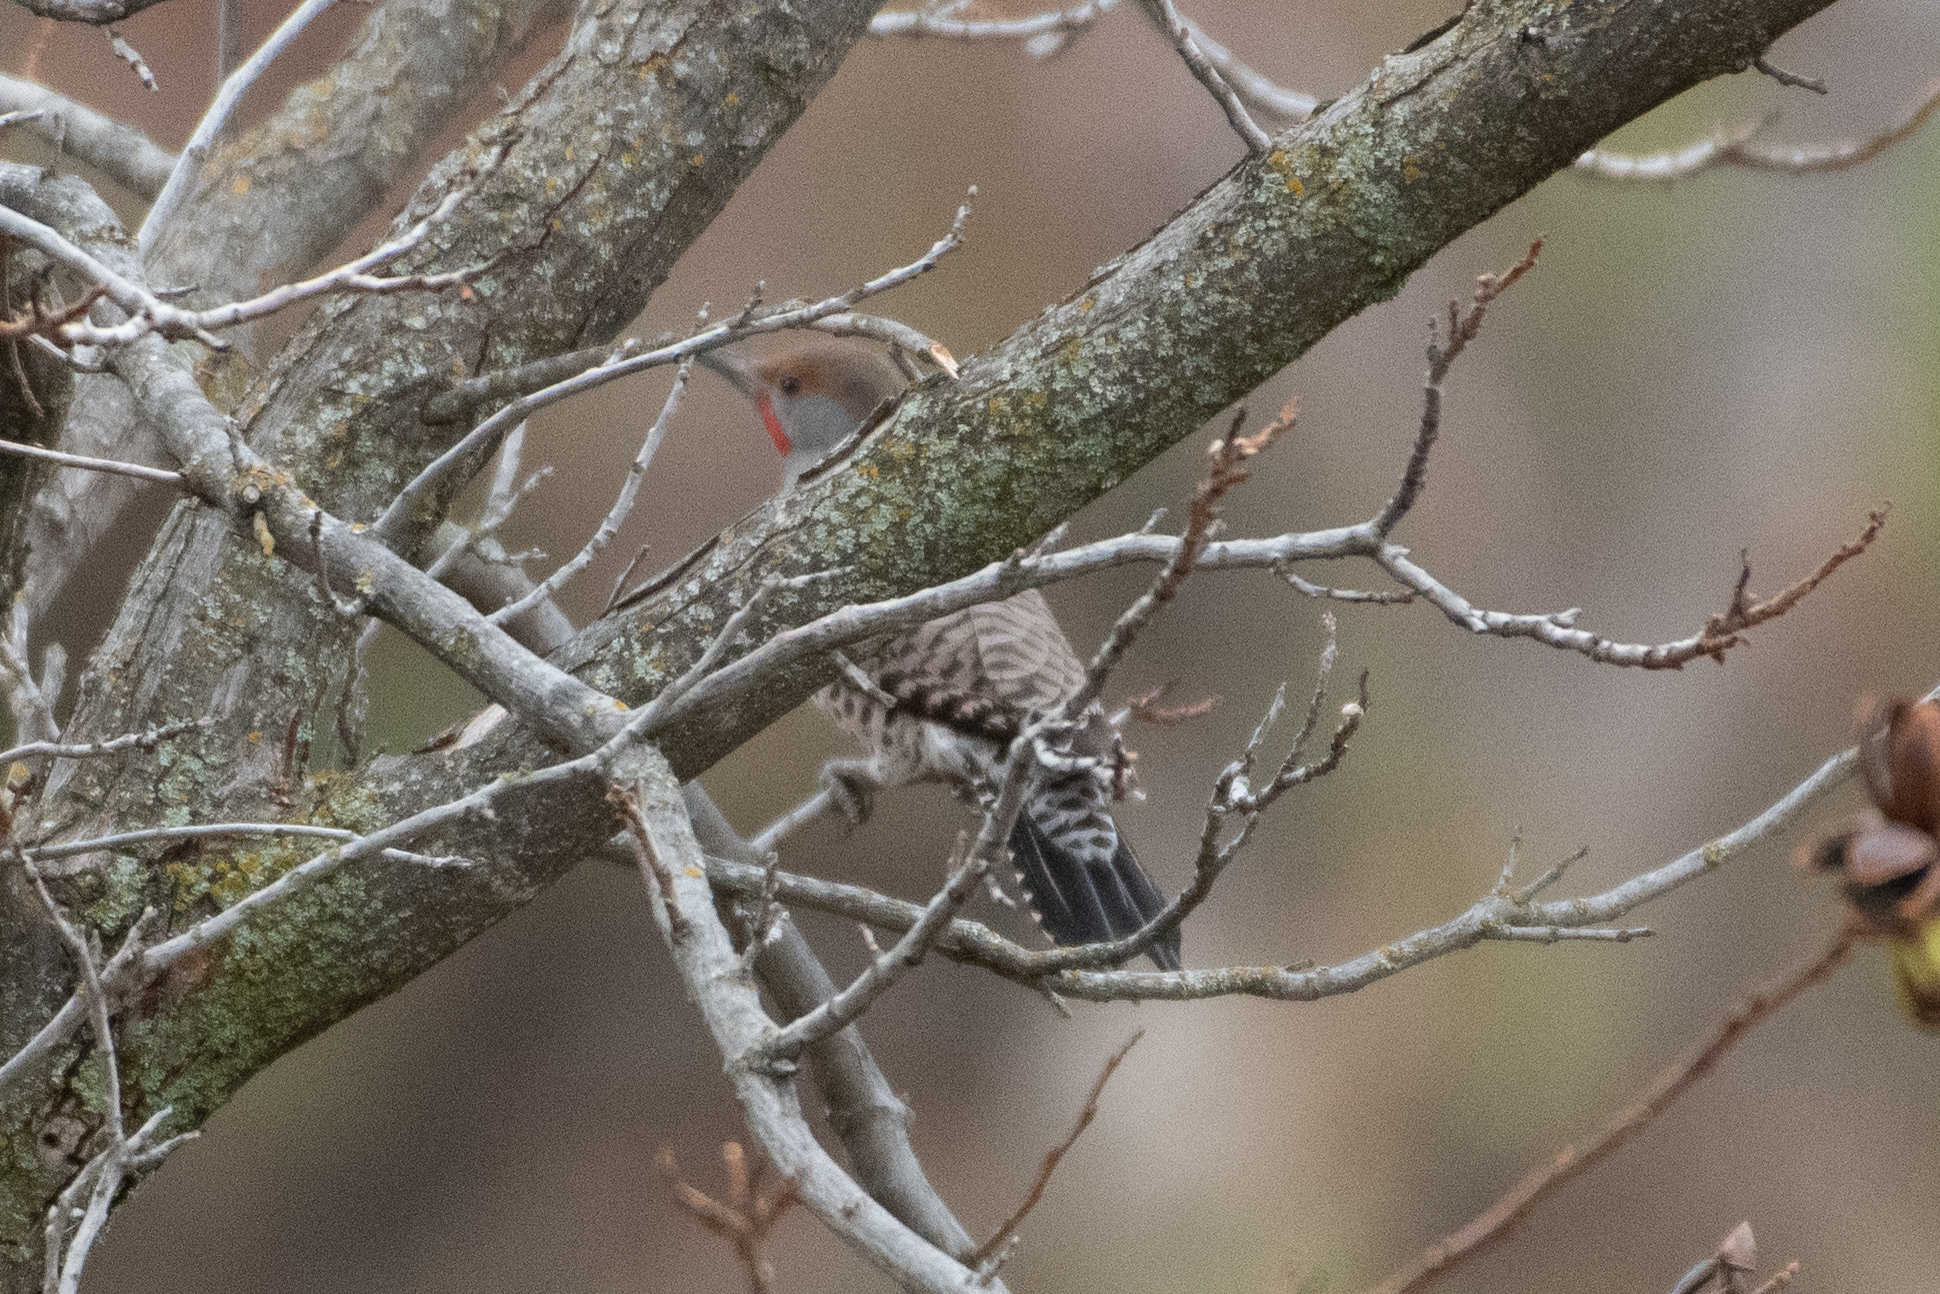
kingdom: Animalia
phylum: Chordata
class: Aves
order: Piciformes
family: Picidae
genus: Colaptes
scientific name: Colaptes auratus
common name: Northern flicker
